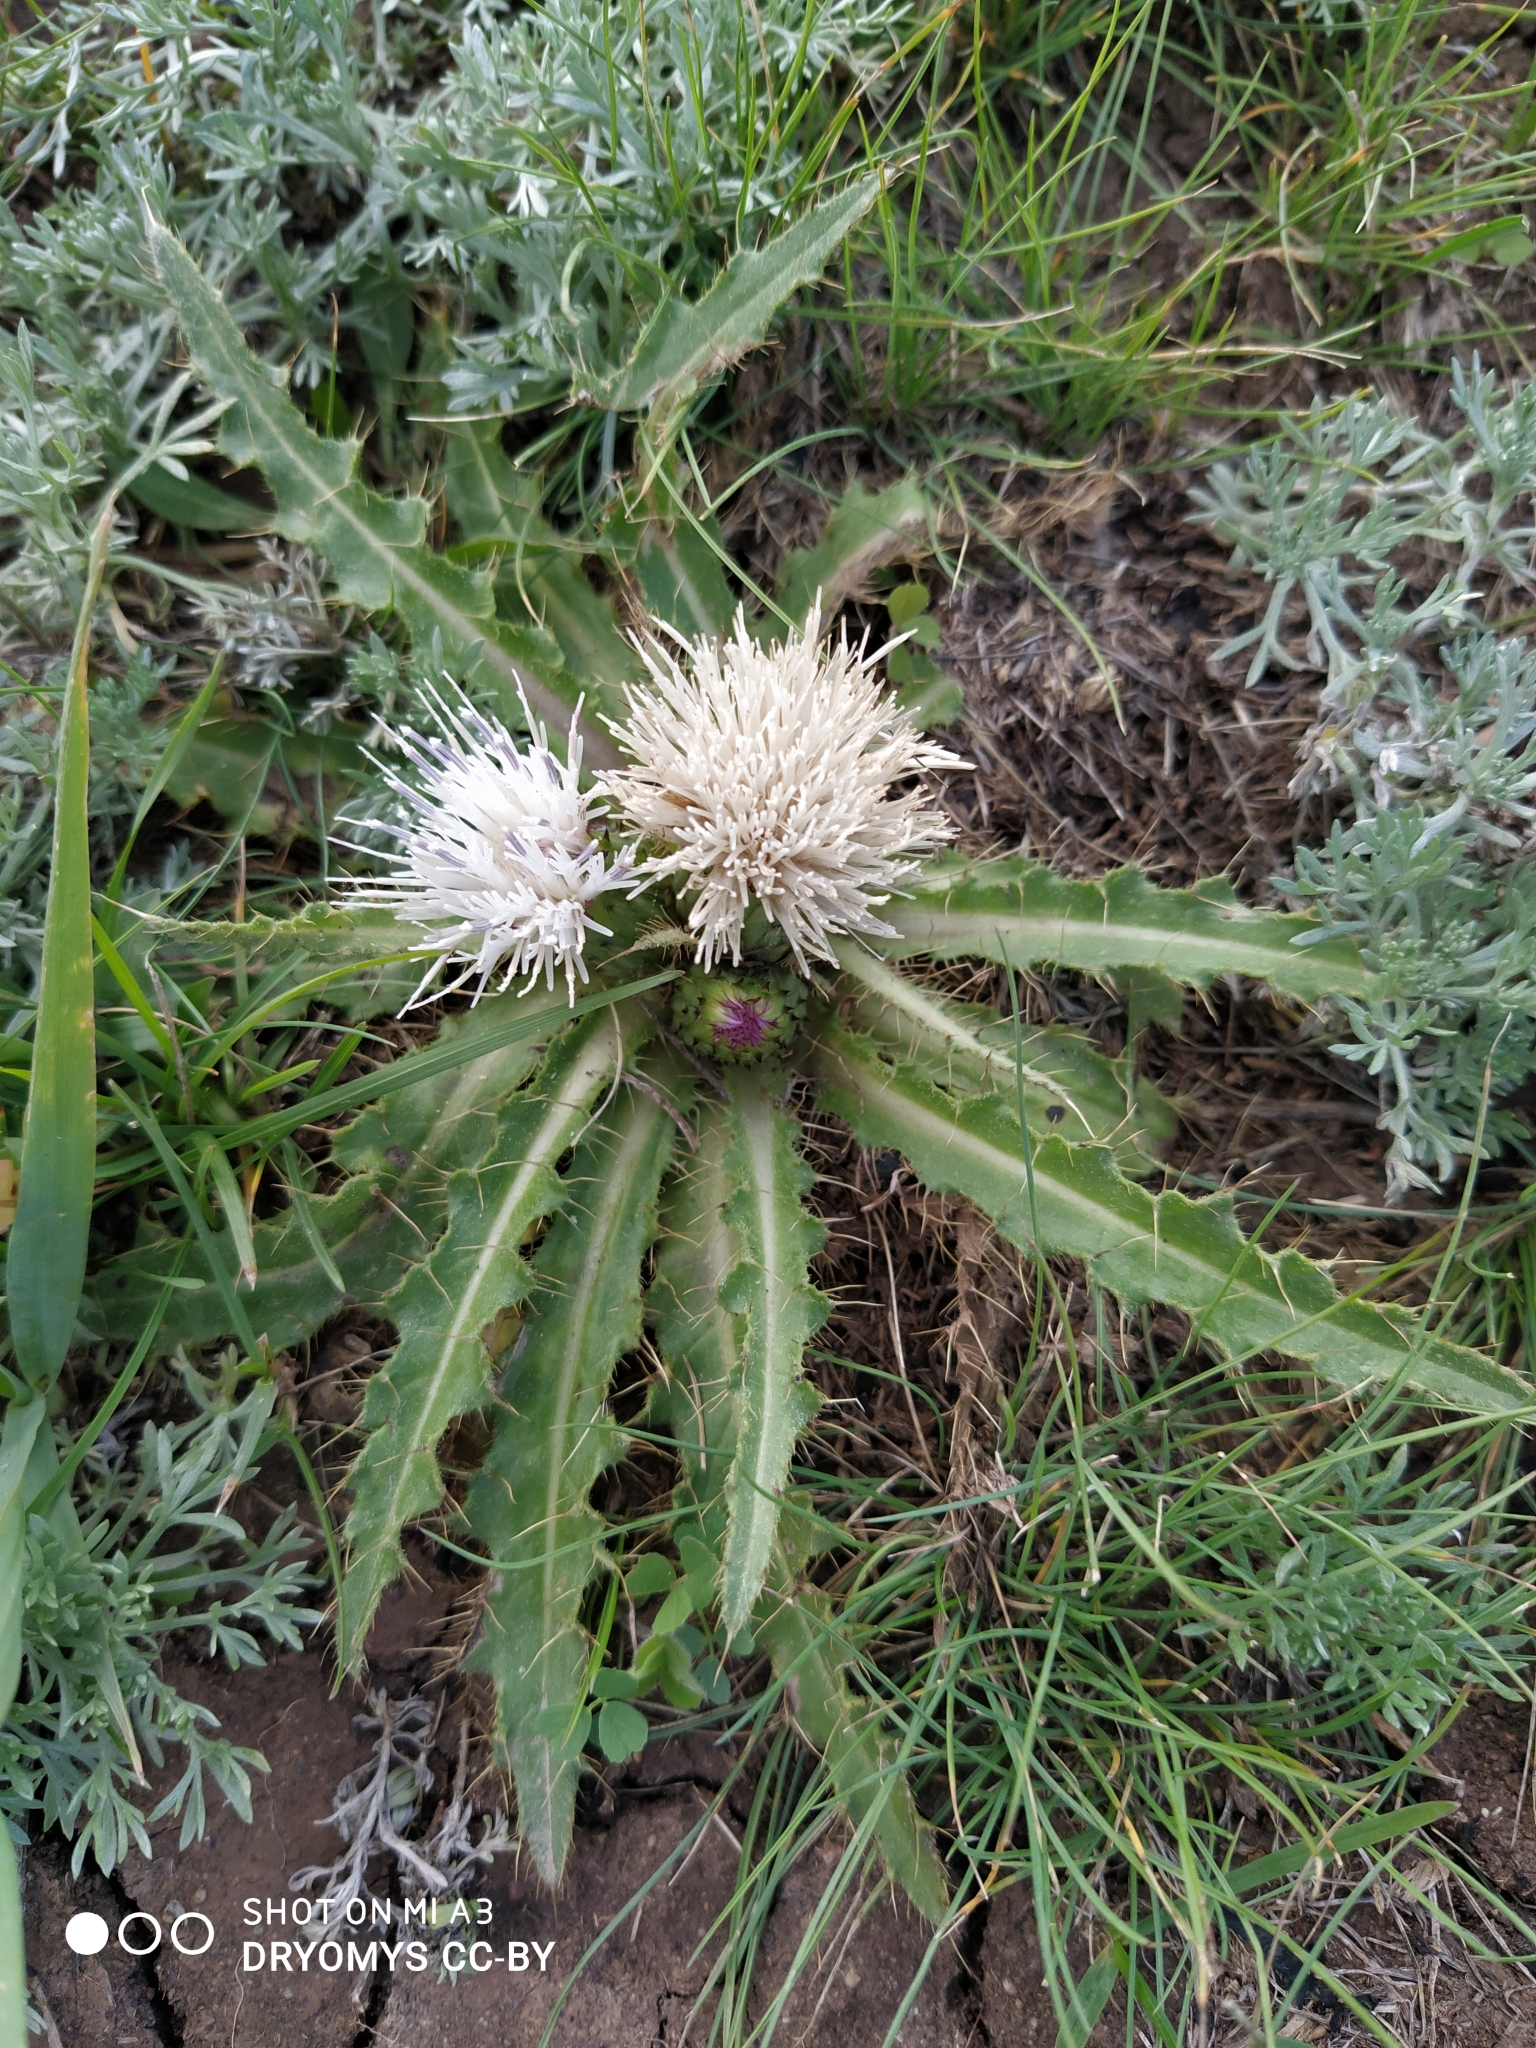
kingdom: Plantae
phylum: Tracheophyta
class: Magnoliopsida
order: Asterales
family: Asteraceae
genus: Cirsium
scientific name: Cirsium esculentum
